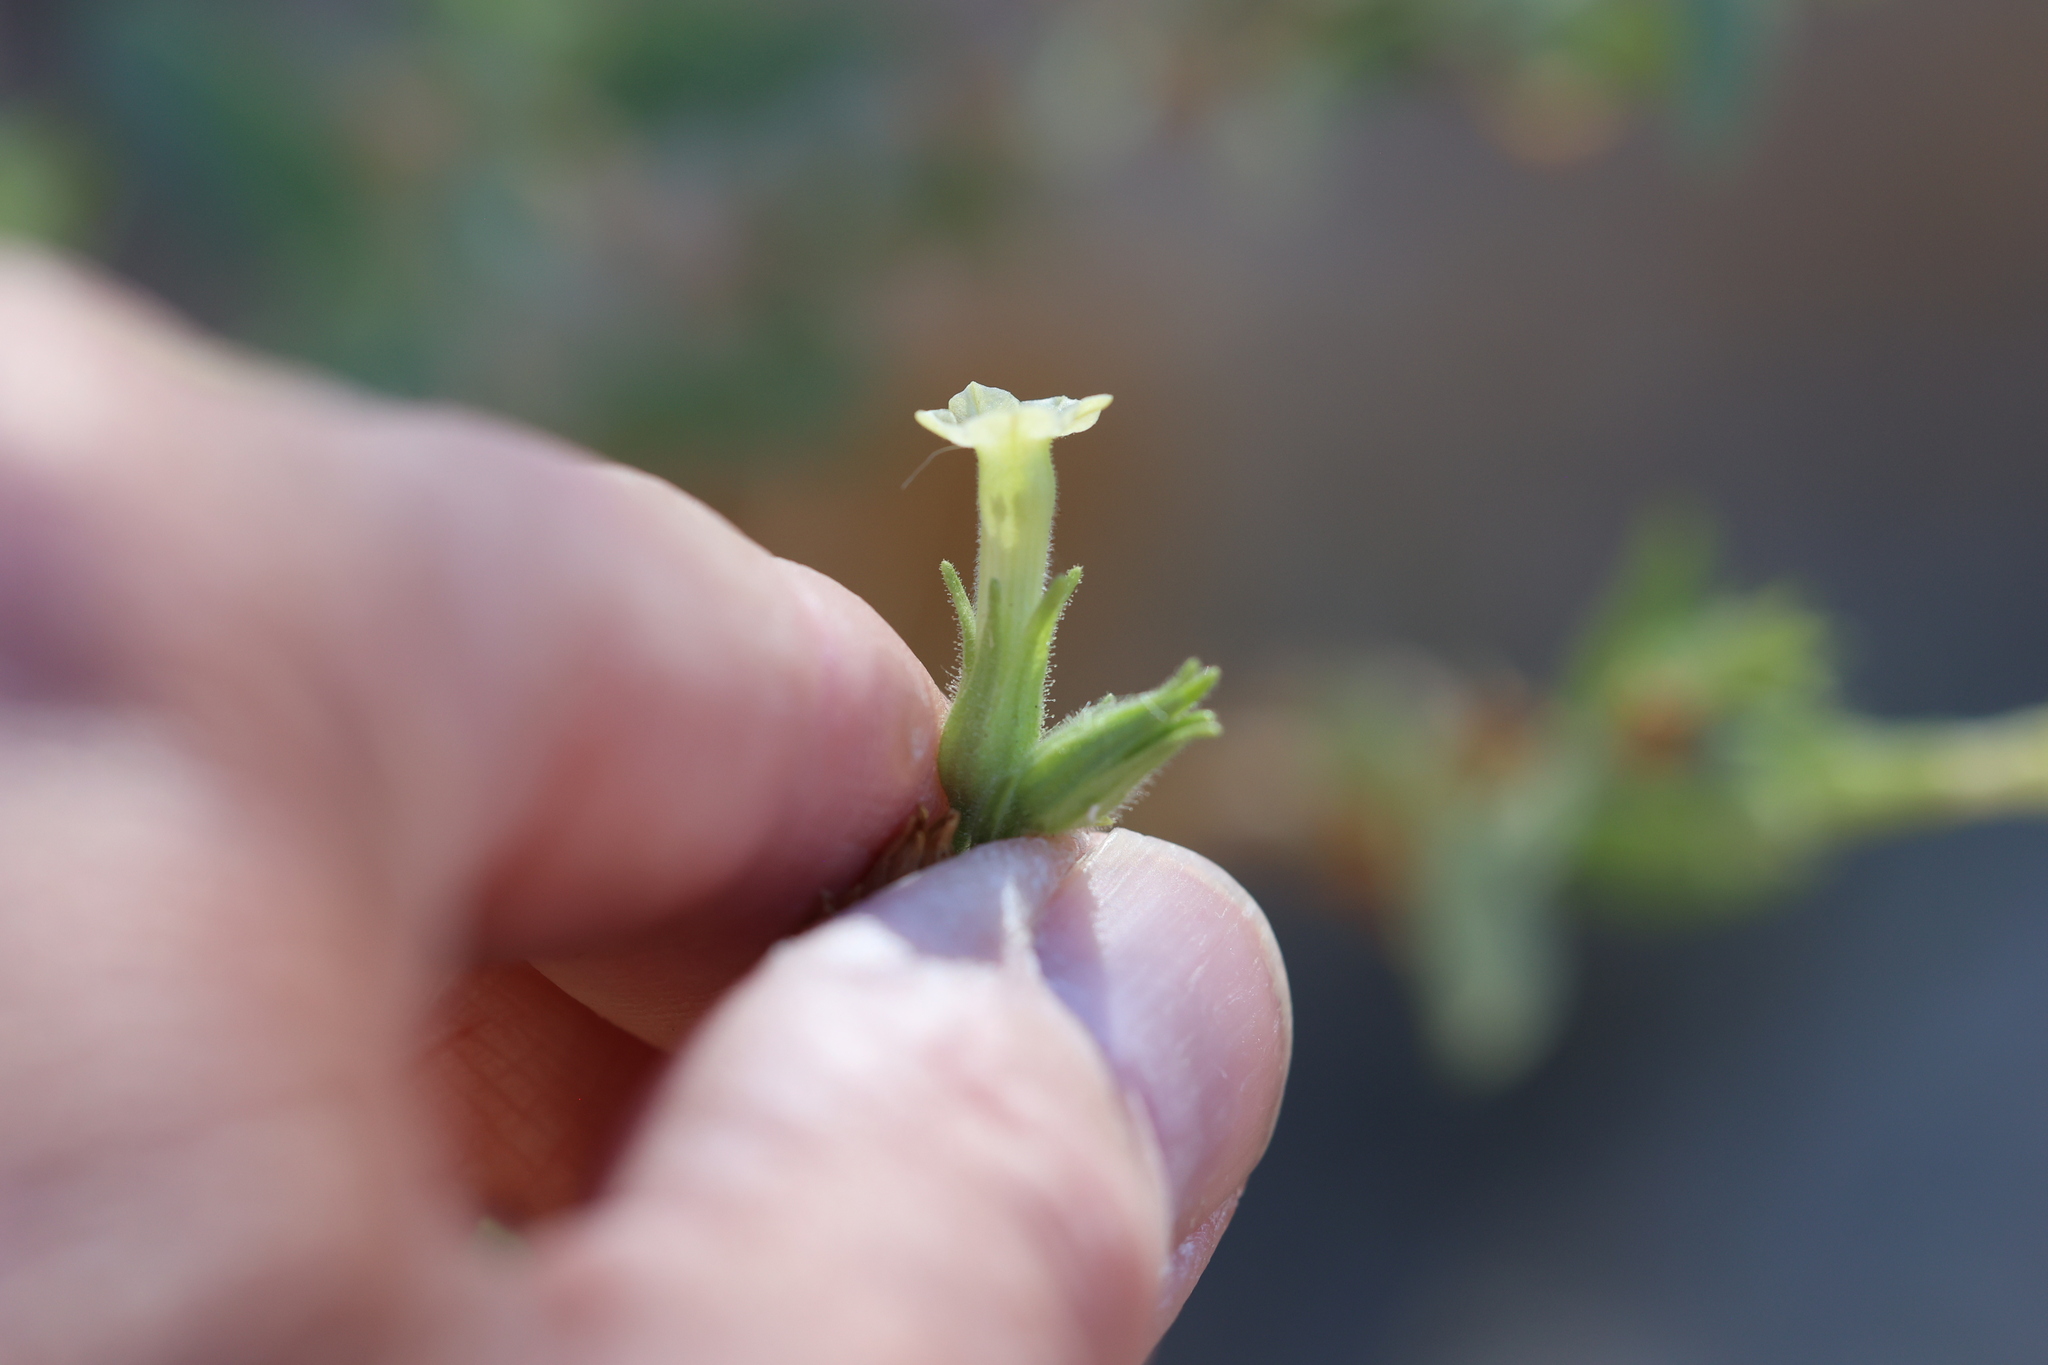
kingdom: Plantae
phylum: Tracheophyta
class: Magnoliopsida
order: Solanales
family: Solanaceae
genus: Nicotiana
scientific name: Nicotiana obtusifolia
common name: Desert tobacco
